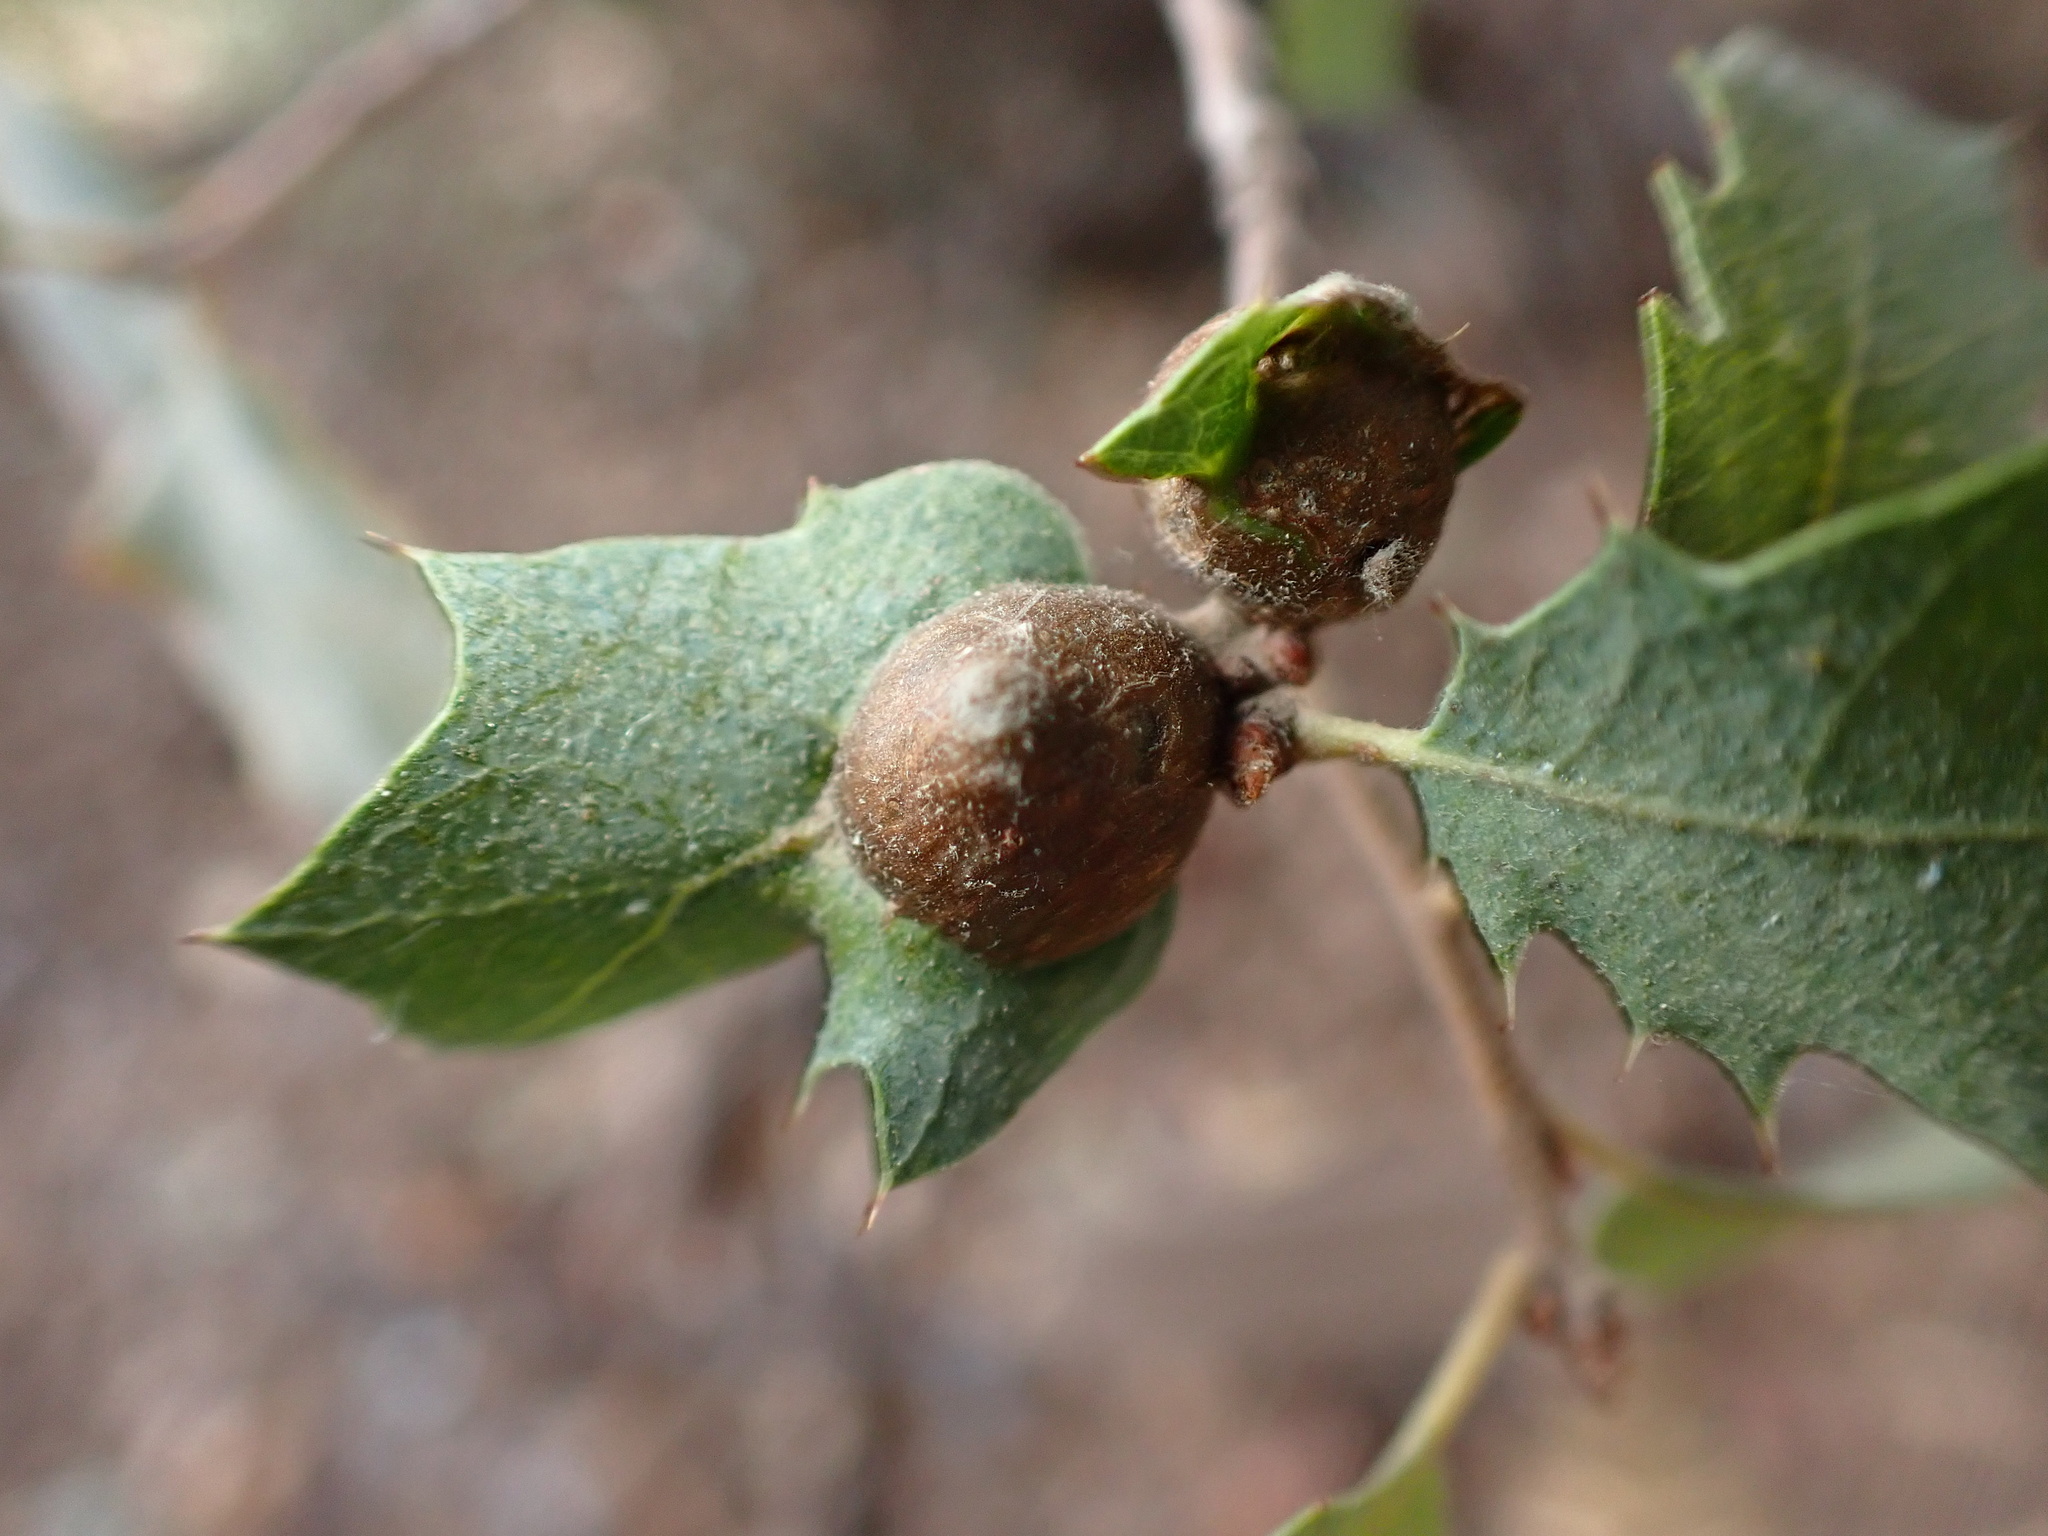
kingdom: Animalia
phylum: Arthropoda
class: Insecta
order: Hymenoptera
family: Cynipidae
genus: Andricus
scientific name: Andricus
